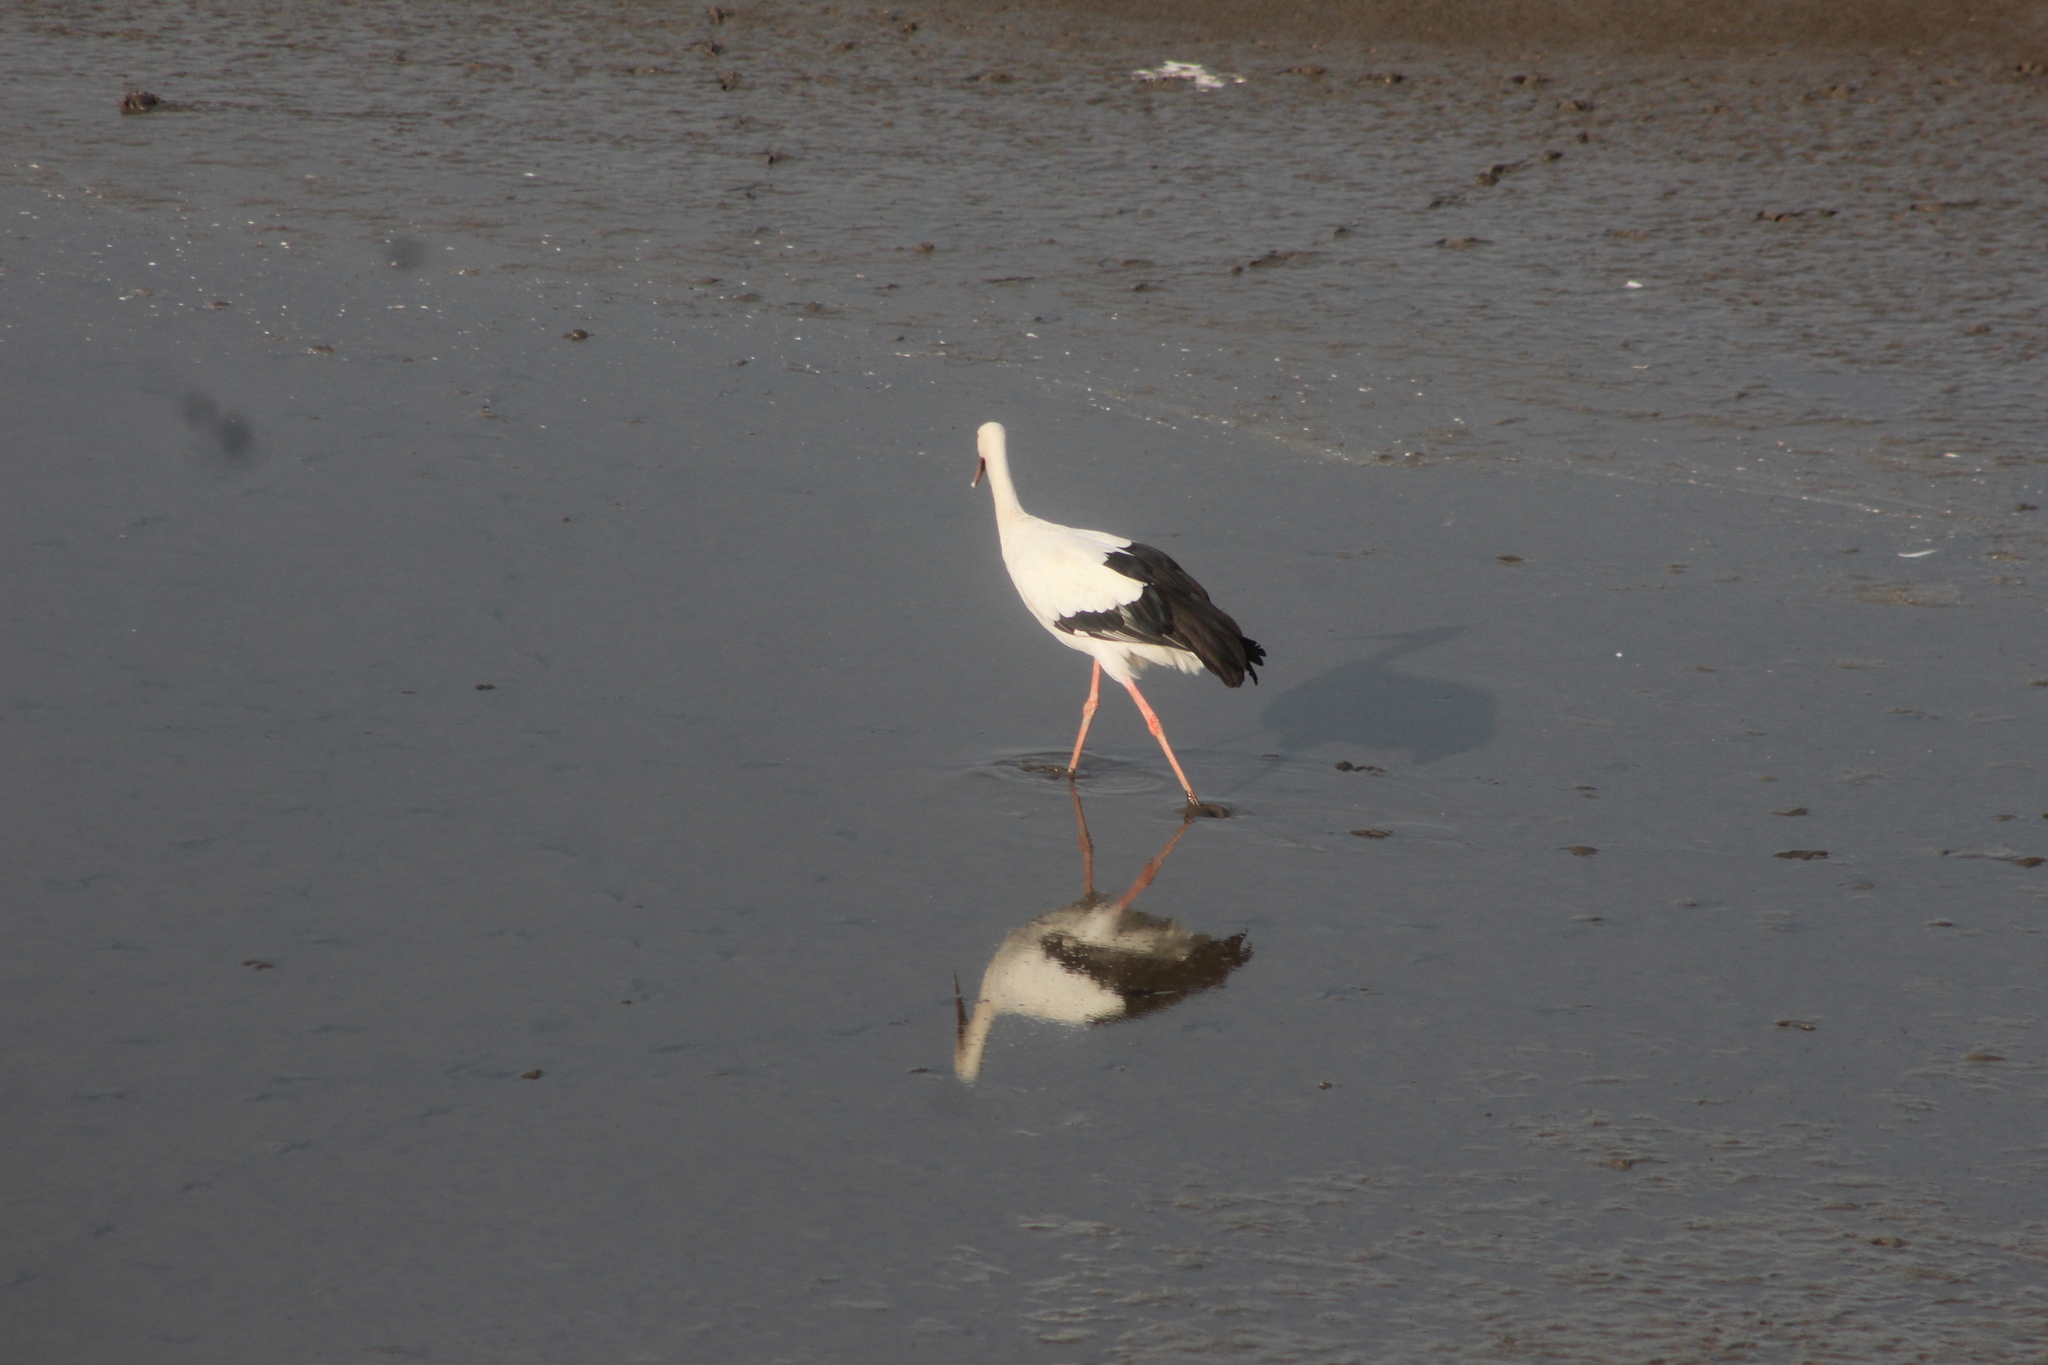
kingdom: Animalia
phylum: Chordata
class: Aves
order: Ciconiiformes
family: Ciconiidae
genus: Ciconia
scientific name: Ciconia ciconia
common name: White stork
